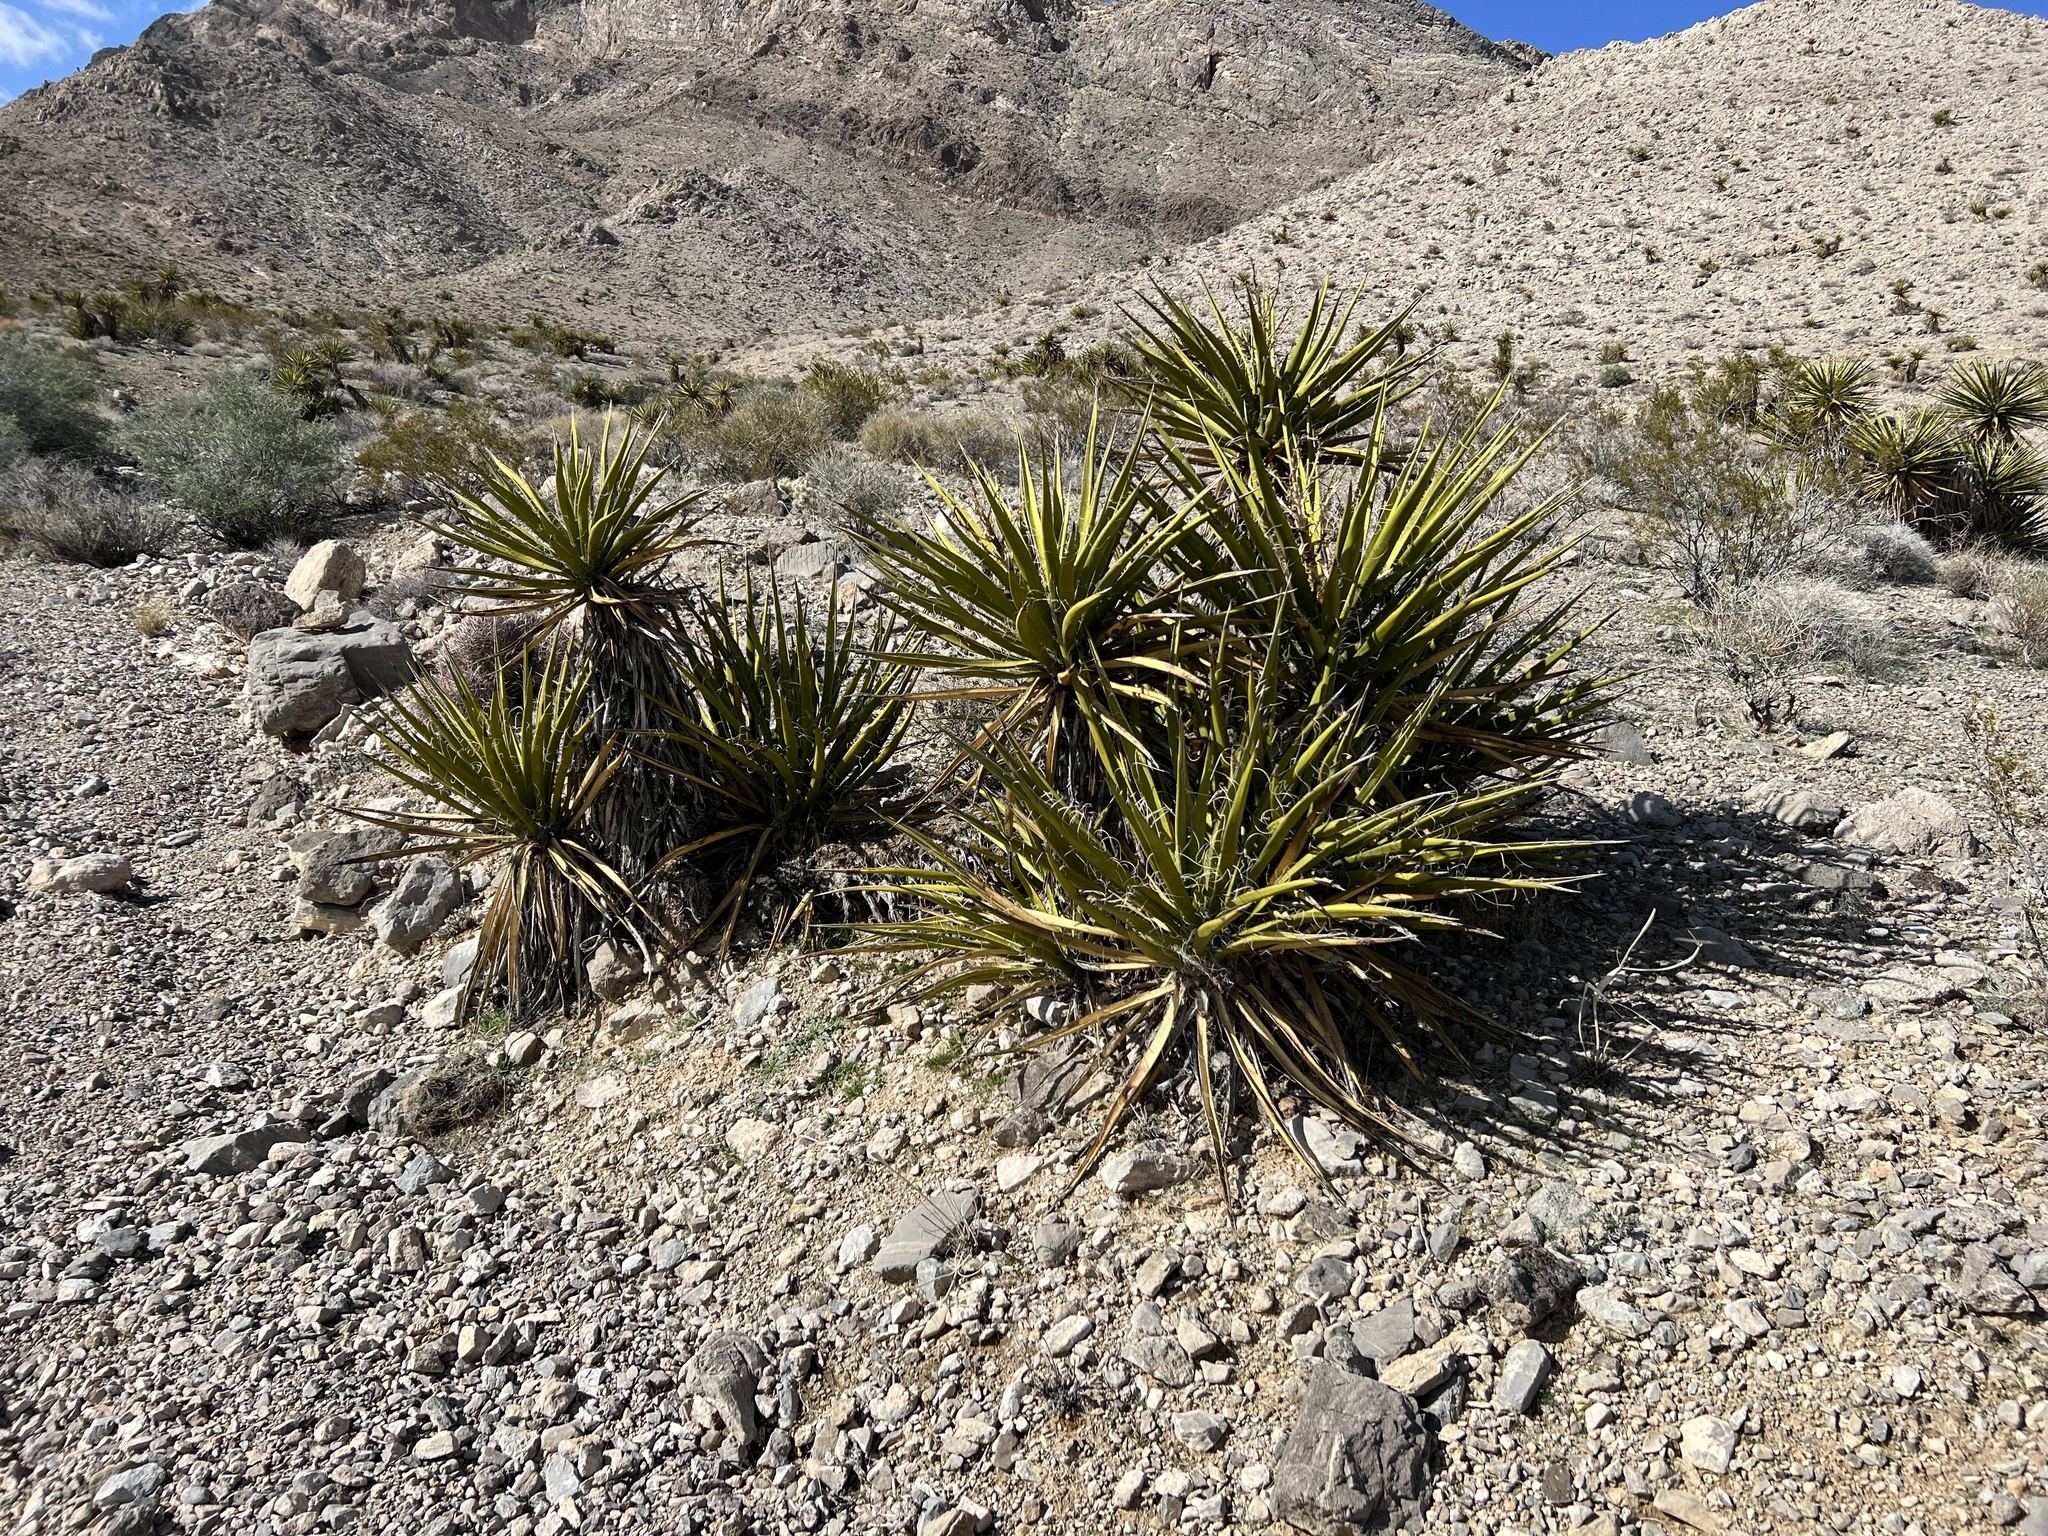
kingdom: Plantae
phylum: Tracheophyta
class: Liliopsida
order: Asparagales
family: Asparagaceae
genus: Yucca
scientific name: Yucca schidigera
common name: Mojave yucca
